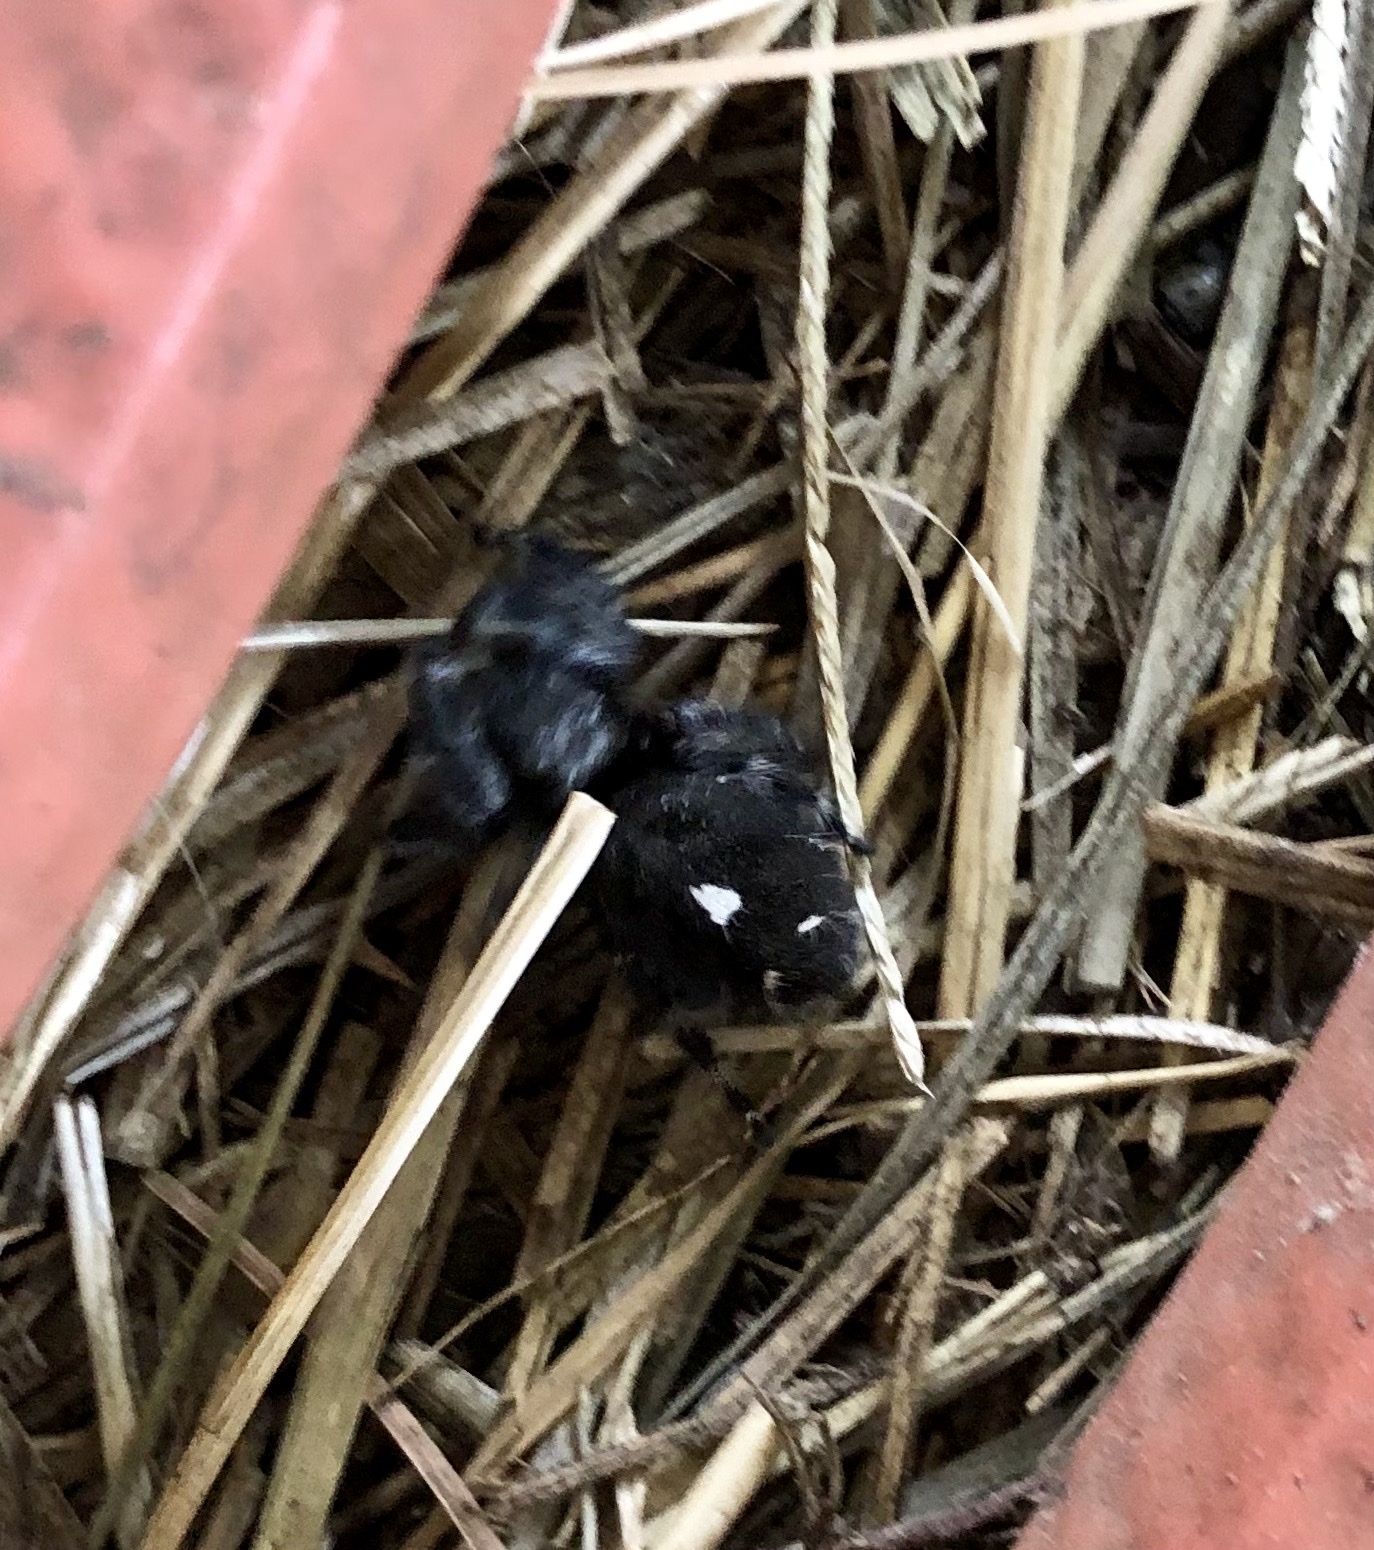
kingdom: Animalia
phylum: Arthropoda
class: Arachnida
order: Araneae
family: Salticidae
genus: Phidippus
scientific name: Phidippus audax
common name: Bold jumper
